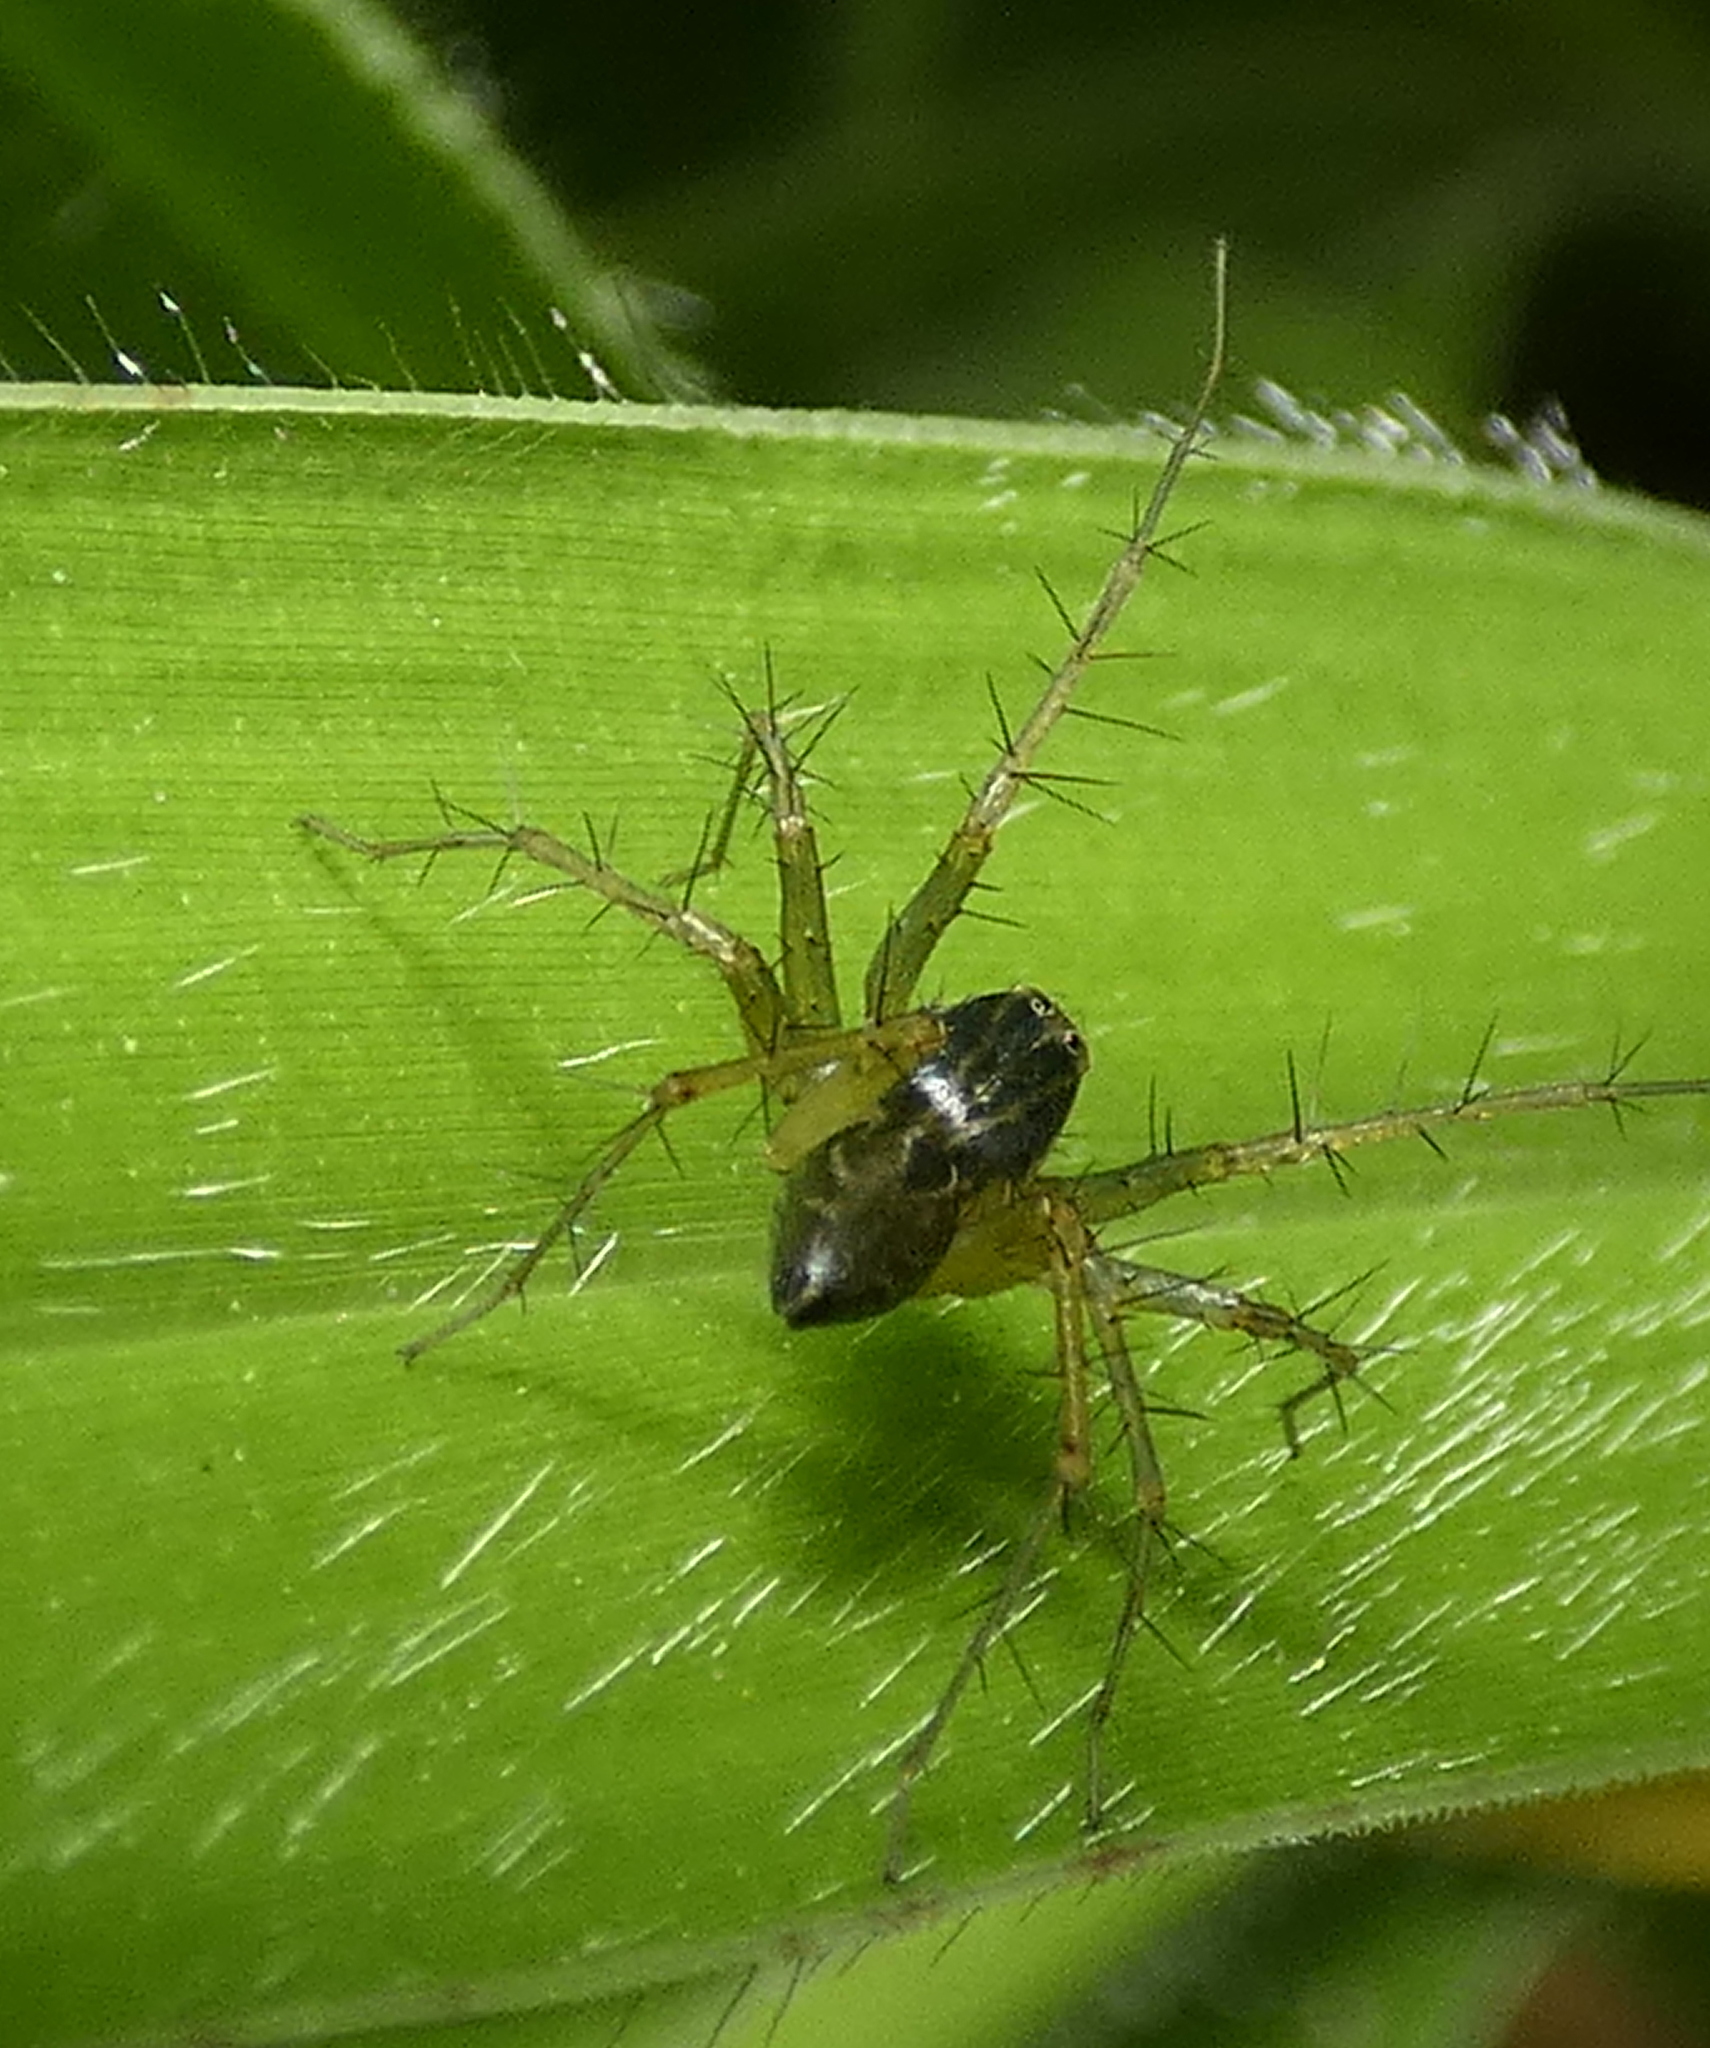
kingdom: Animalia
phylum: Arthropoda
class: Arachnida
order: Araneae
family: Oxyopidae
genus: Oxyopes
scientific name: Oxyopes salticus
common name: Lynx spiders
